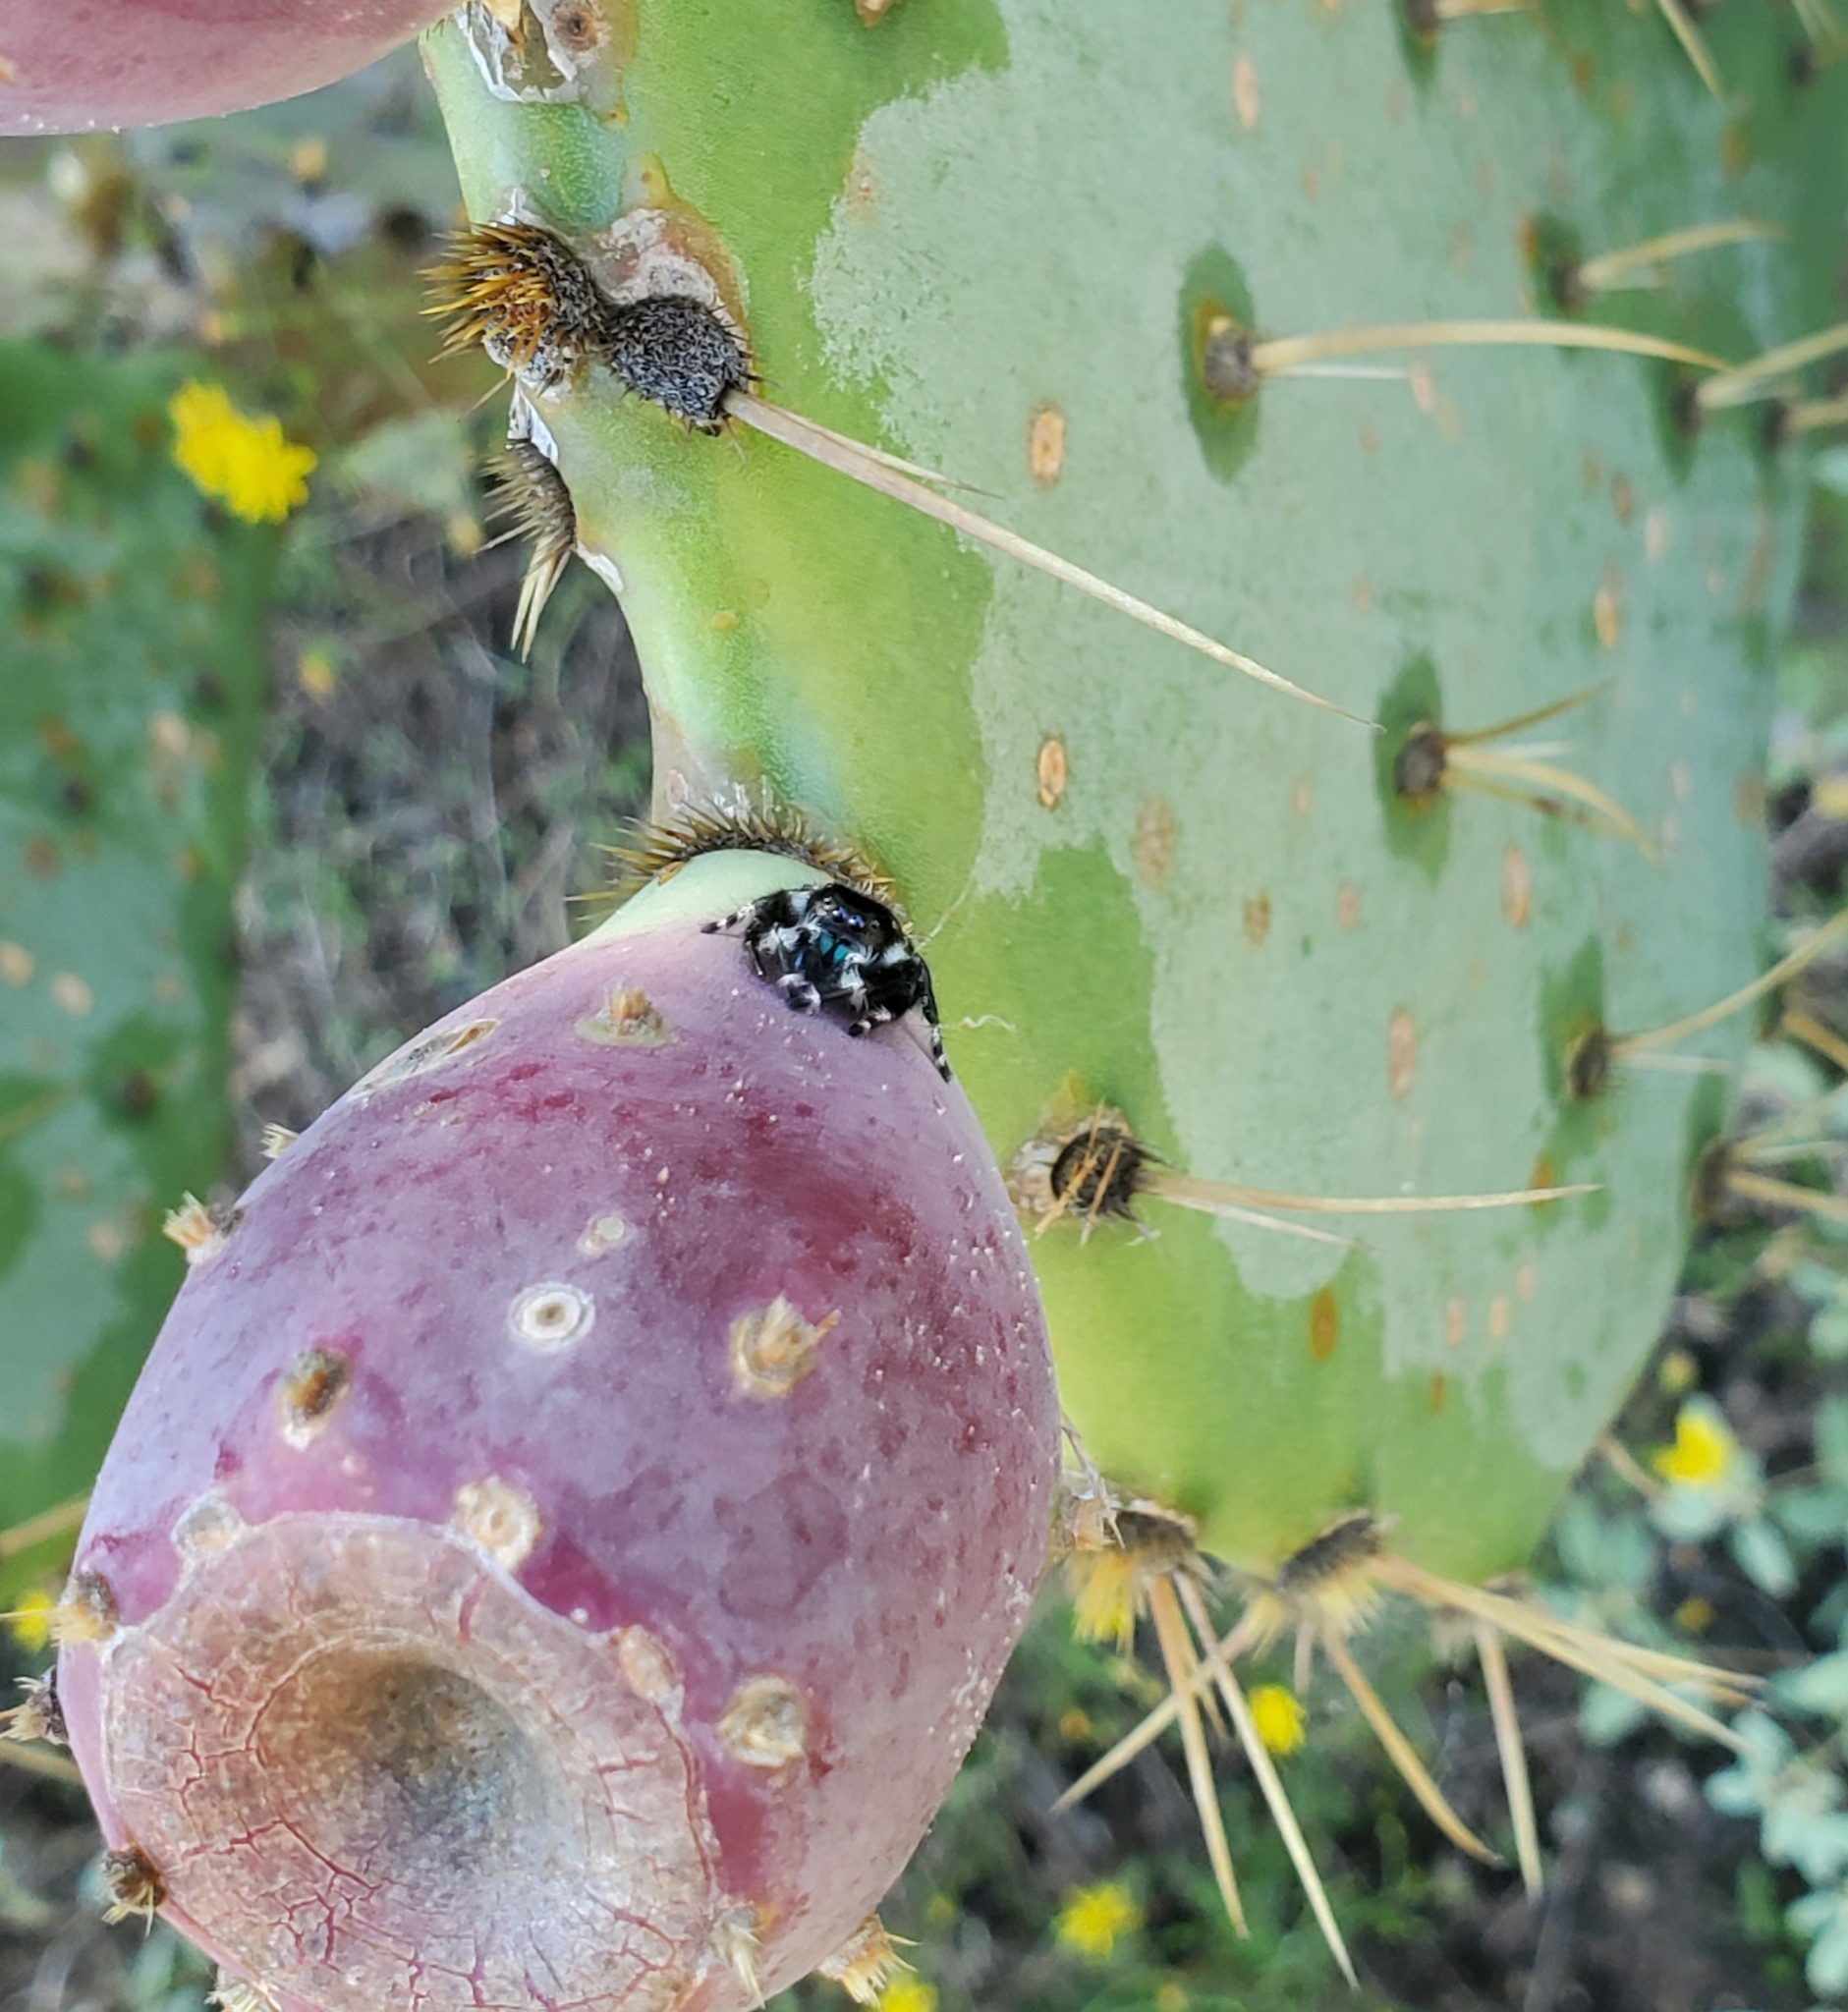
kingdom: Animalia
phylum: Arthropoda
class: Arachnida
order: Araneae
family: Salticidae
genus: Phidippus
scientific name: Phidippus audax
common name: Bold jumper
